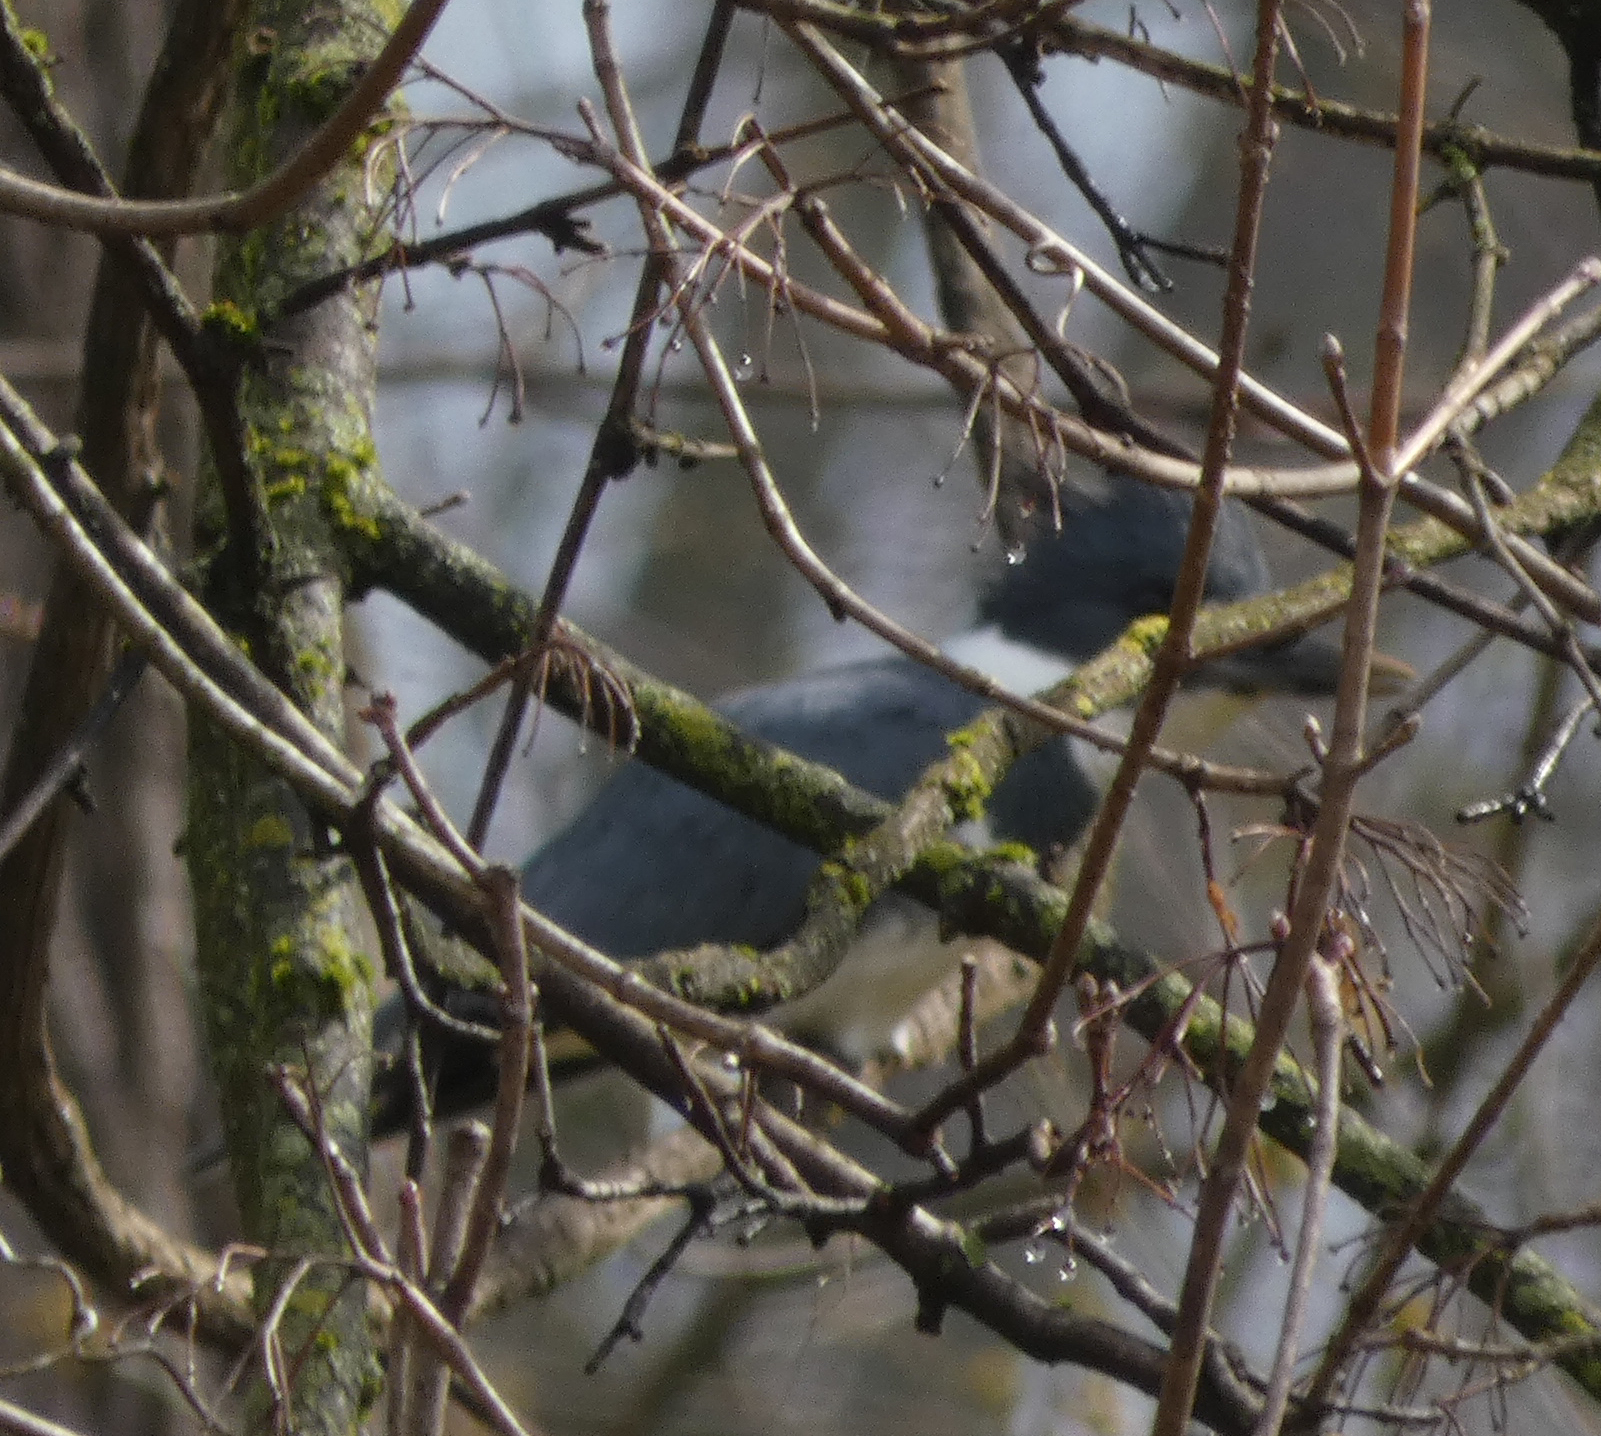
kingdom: Animalia
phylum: Chordata
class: Aves
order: Coraciiformes
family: Alcedinidae
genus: Megaceryle
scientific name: Megaceryle alcyon
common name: Belted kingfisher
